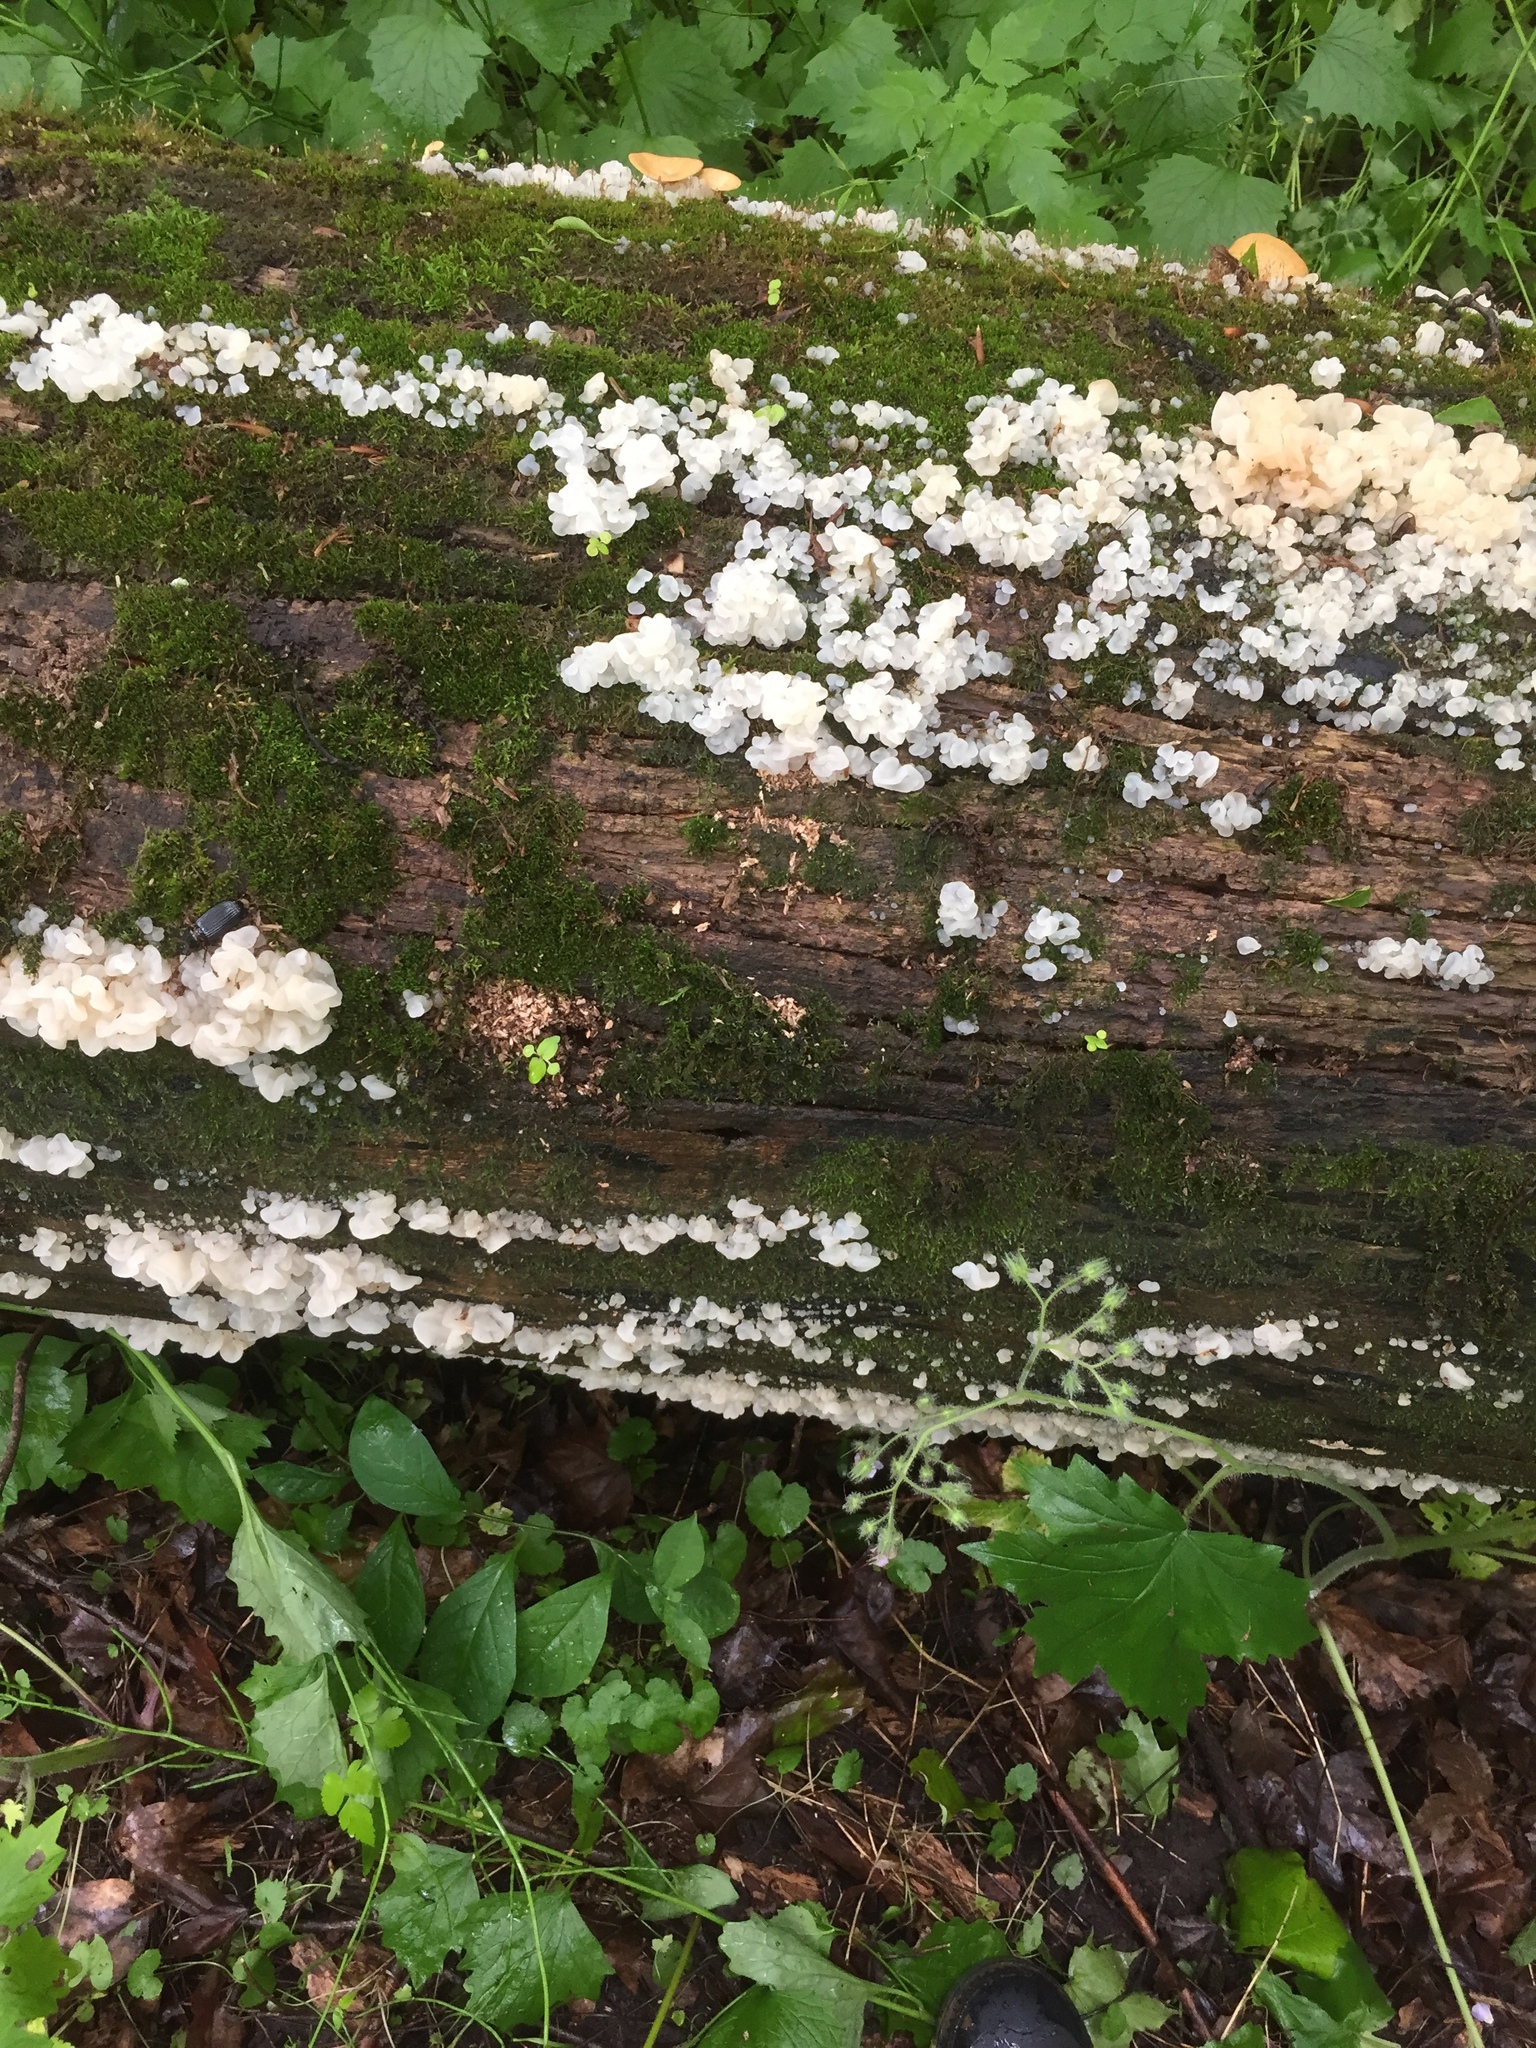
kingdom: Fungi
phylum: Basidiomycota
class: Agaricomycetes
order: Auriculariales
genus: Ductifera
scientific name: Ductifera pululahuana
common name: White jelly fungus
